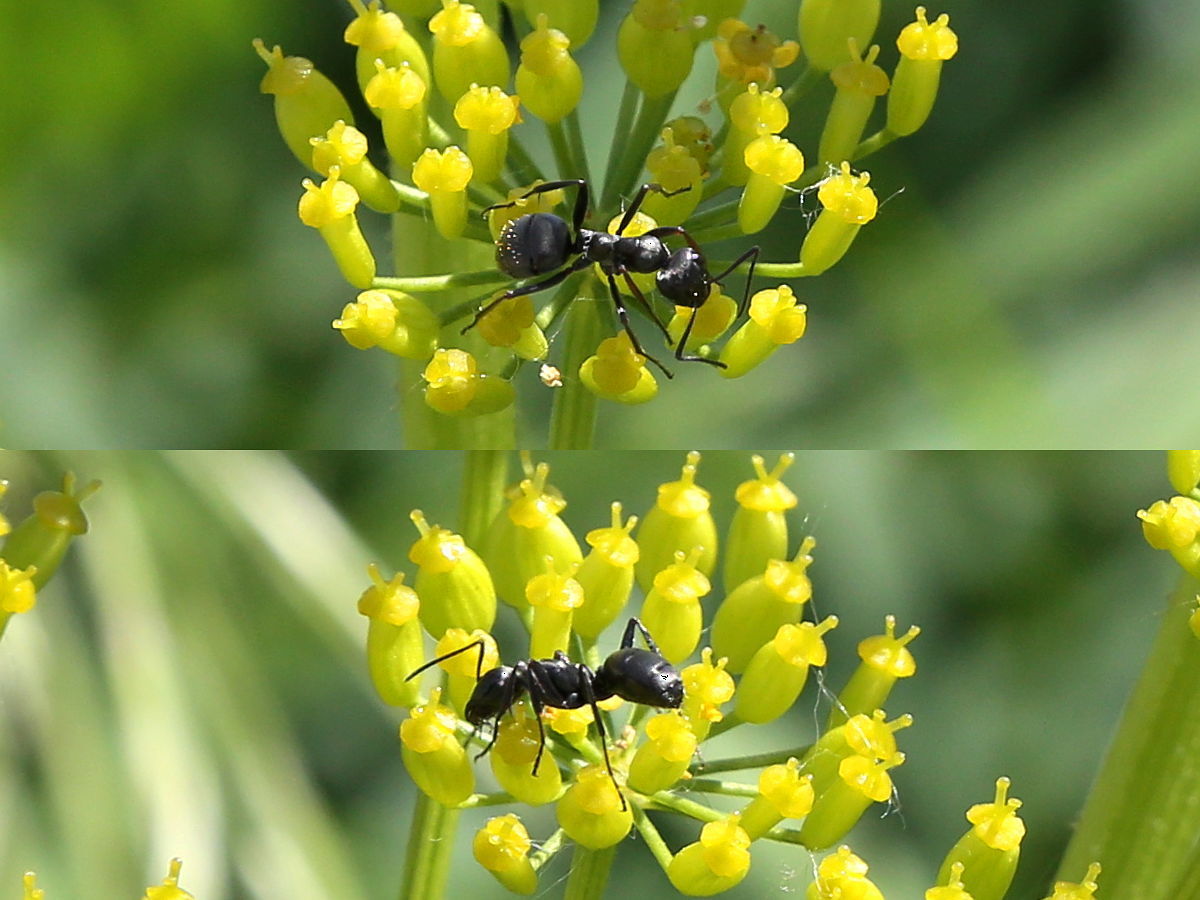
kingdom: Animalia
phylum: Arthropoda
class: Insecta
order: Hymenoptera
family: Formicidae
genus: Formica
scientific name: Formica subsericea
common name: Silky field ant
